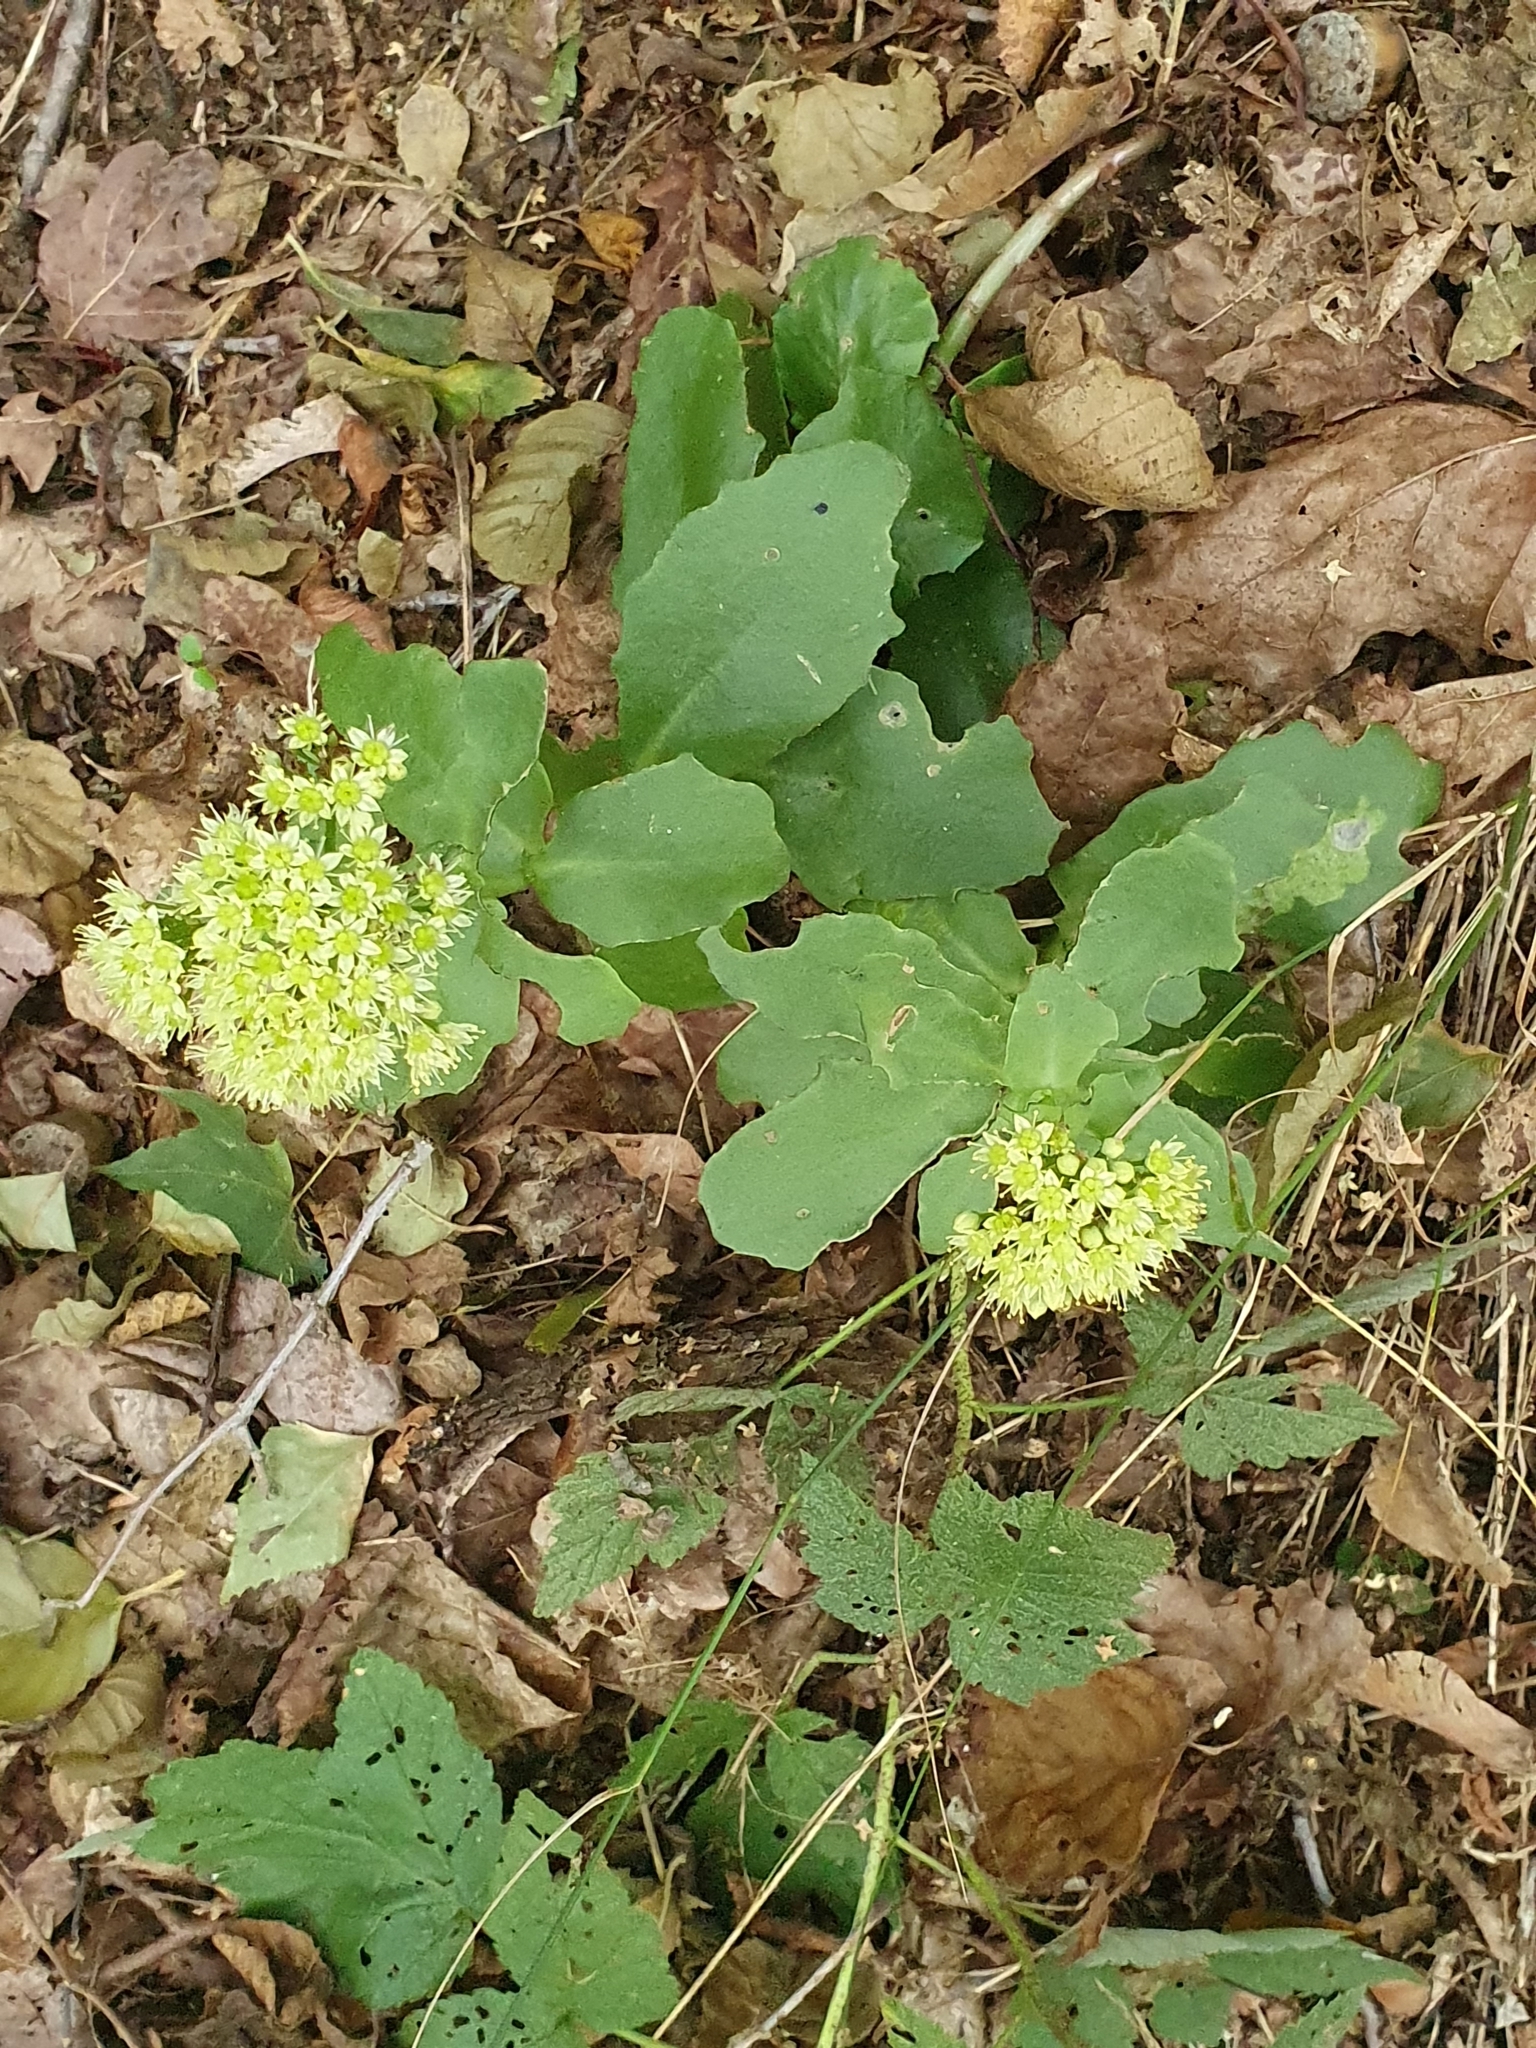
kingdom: Plantae
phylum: Tracheophyta
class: Magnoliopsida
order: Saxifragales
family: Crassulaceae
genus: Hylotelephium
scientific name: Hylotelephium maximum
